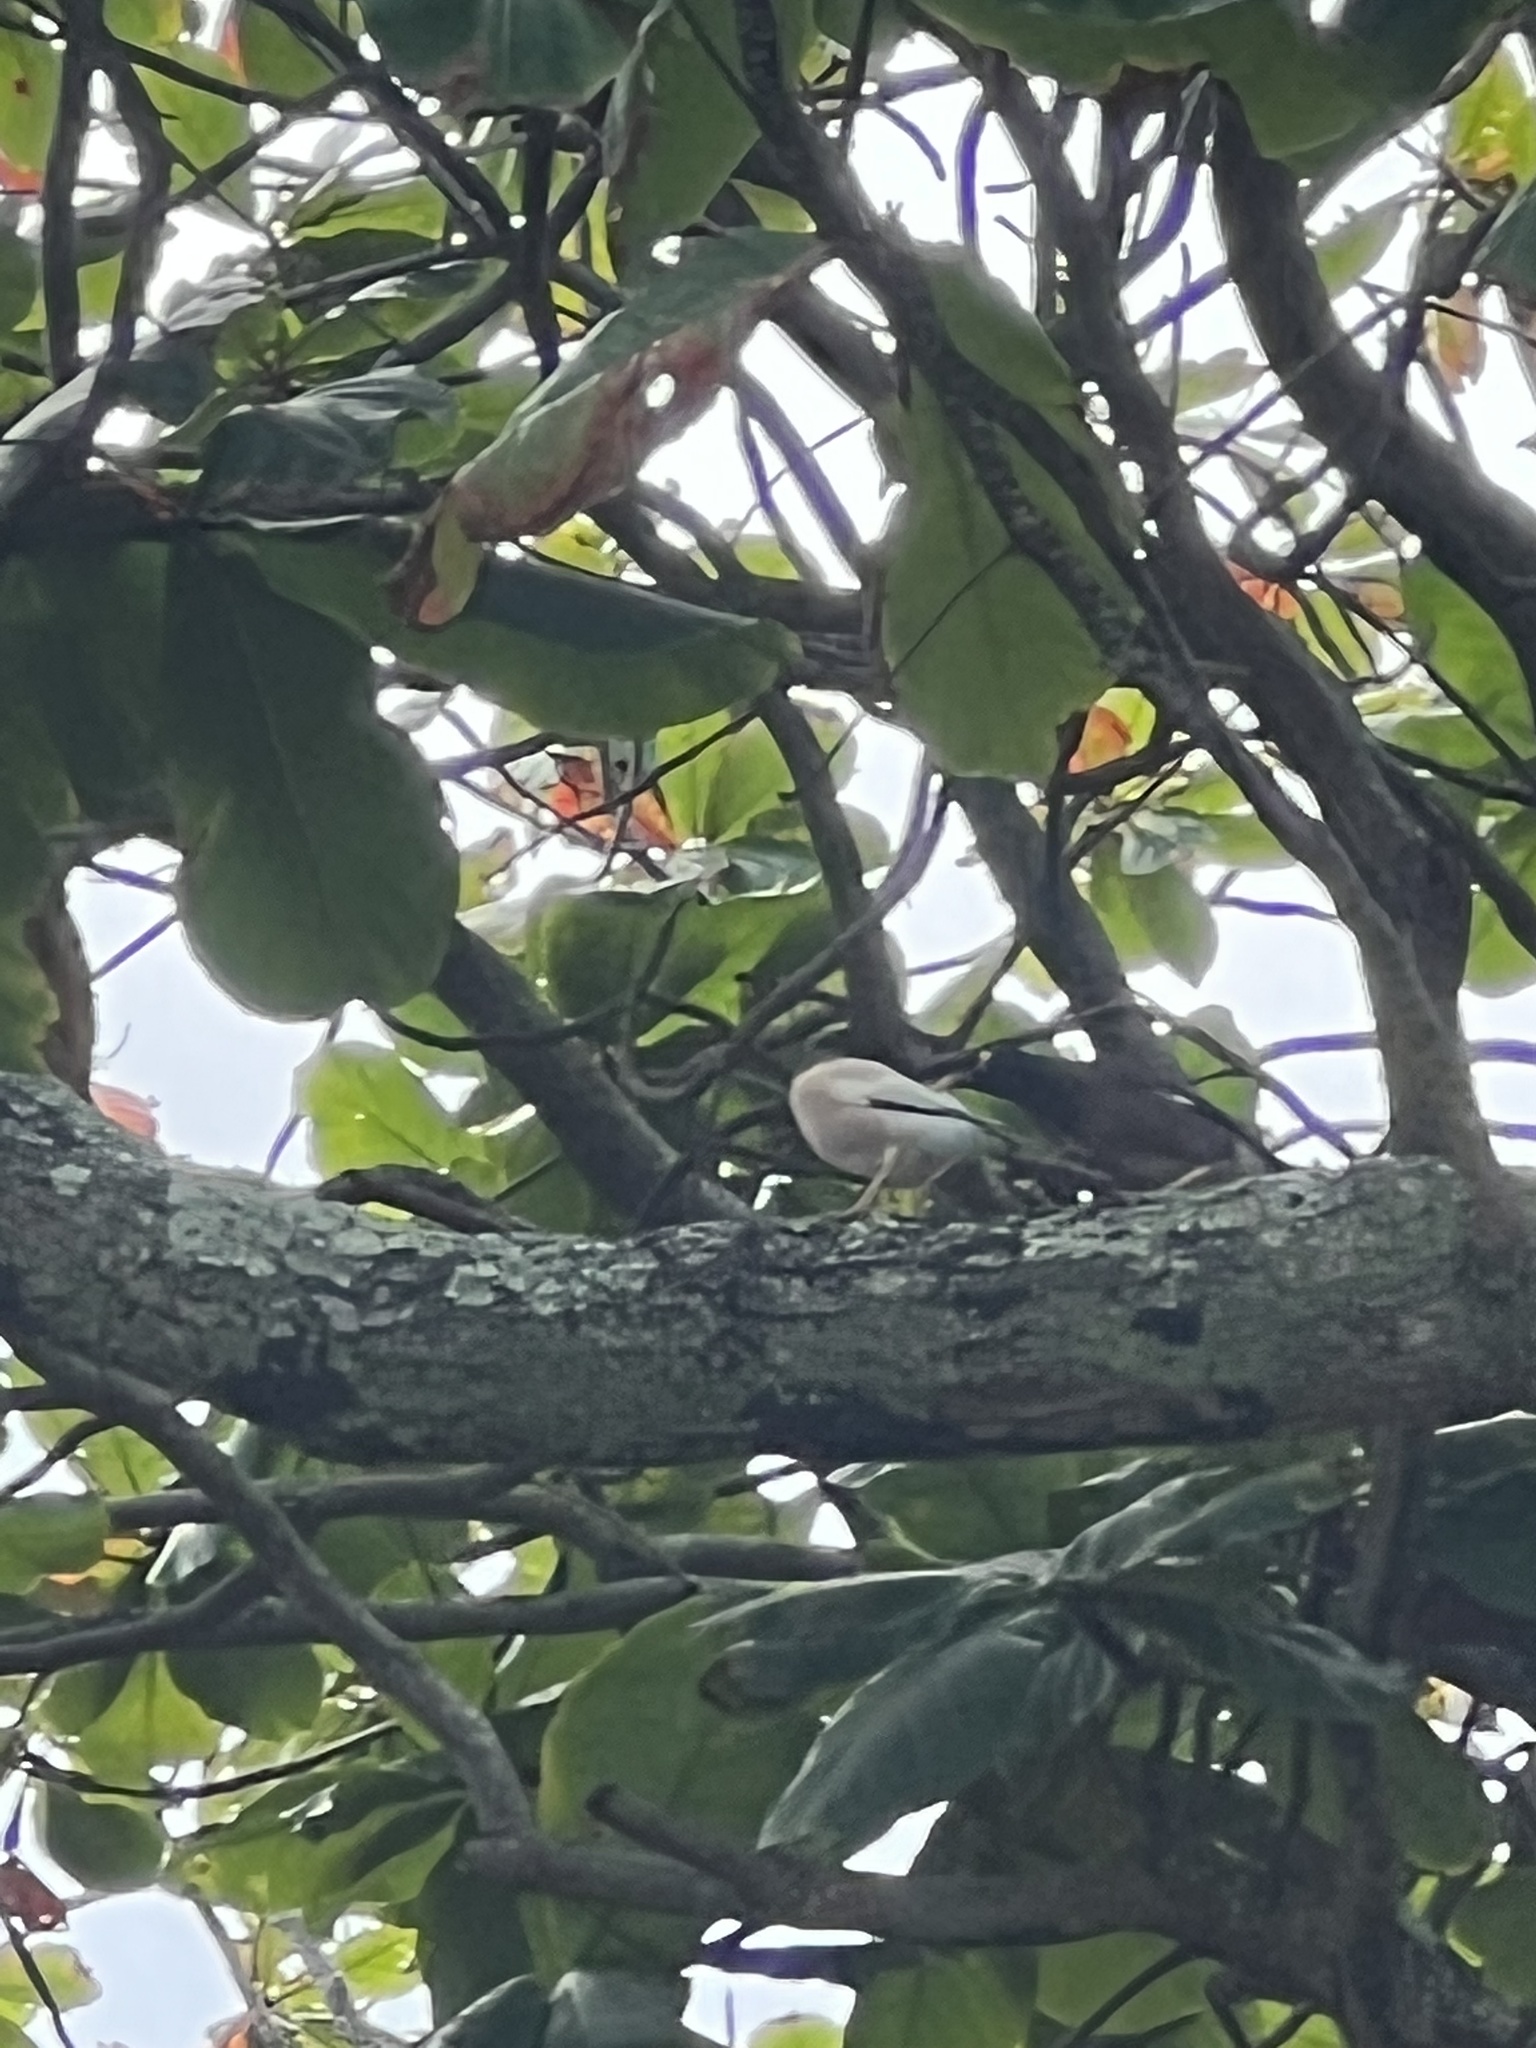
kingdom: Animalia
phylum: Chordata
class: Aves
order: Passeriformes
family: Sturnidae
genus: Acridotheres
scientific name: Acridotheres tristis
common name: Common myna
